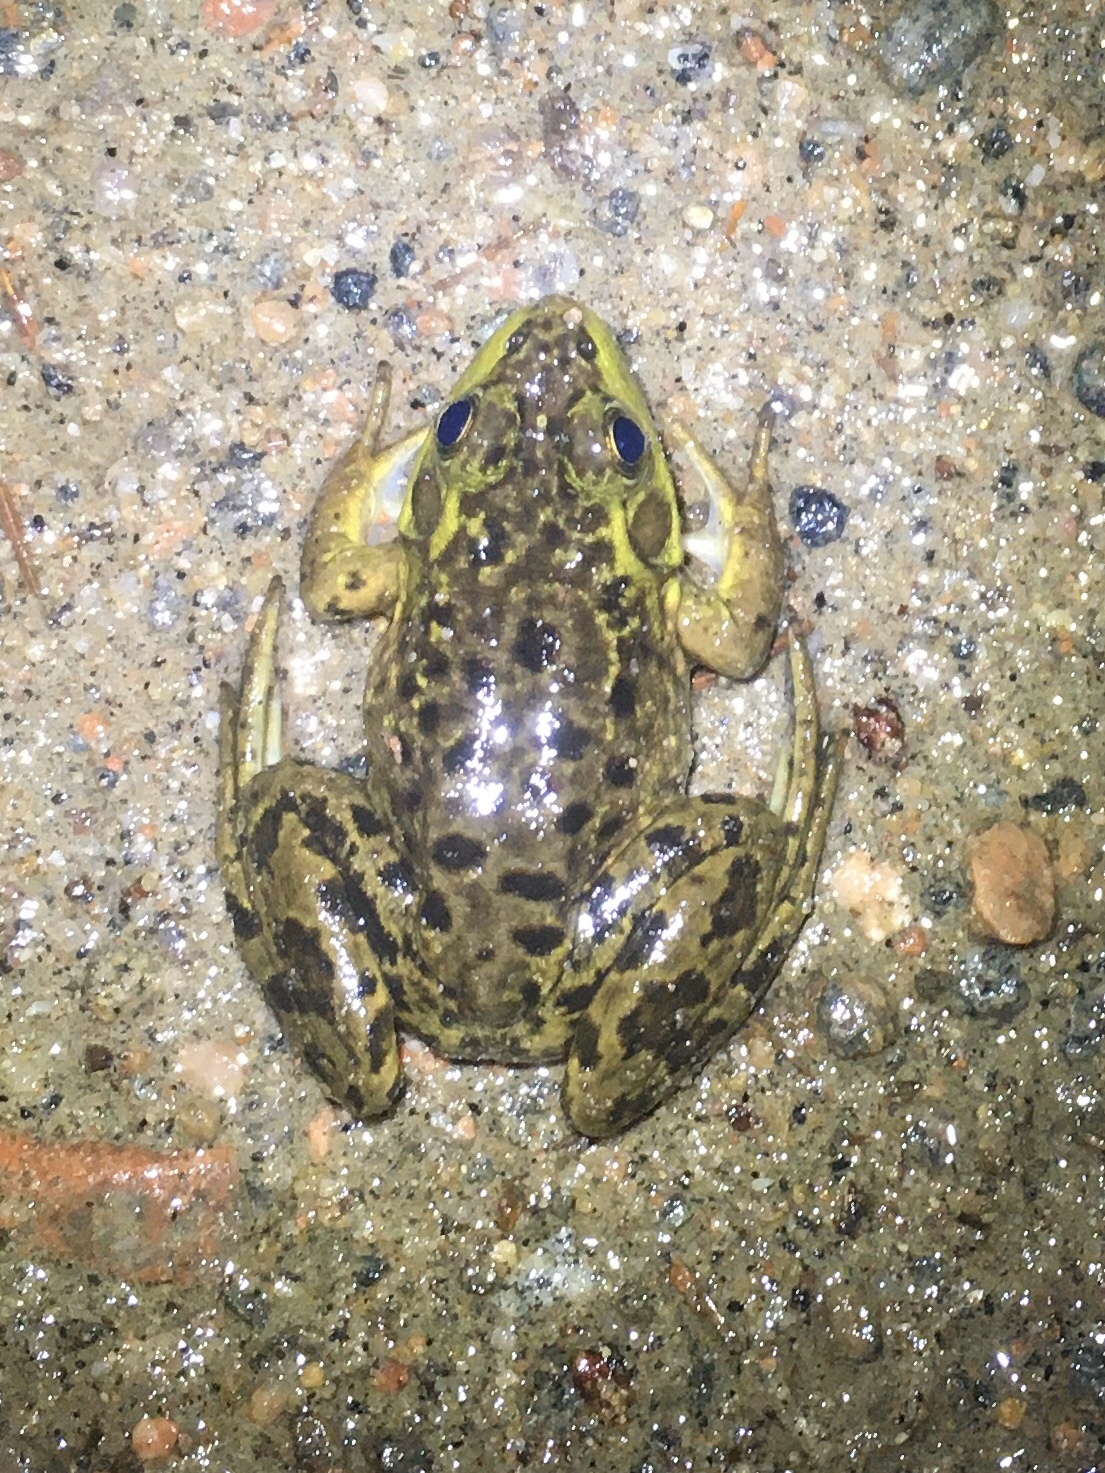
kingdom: Animalia
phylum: Chordata
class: Amphibia
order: Anura
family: Ranidae
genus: Lithobates
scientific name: Lithobates septentrionalis
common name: Mink frog
